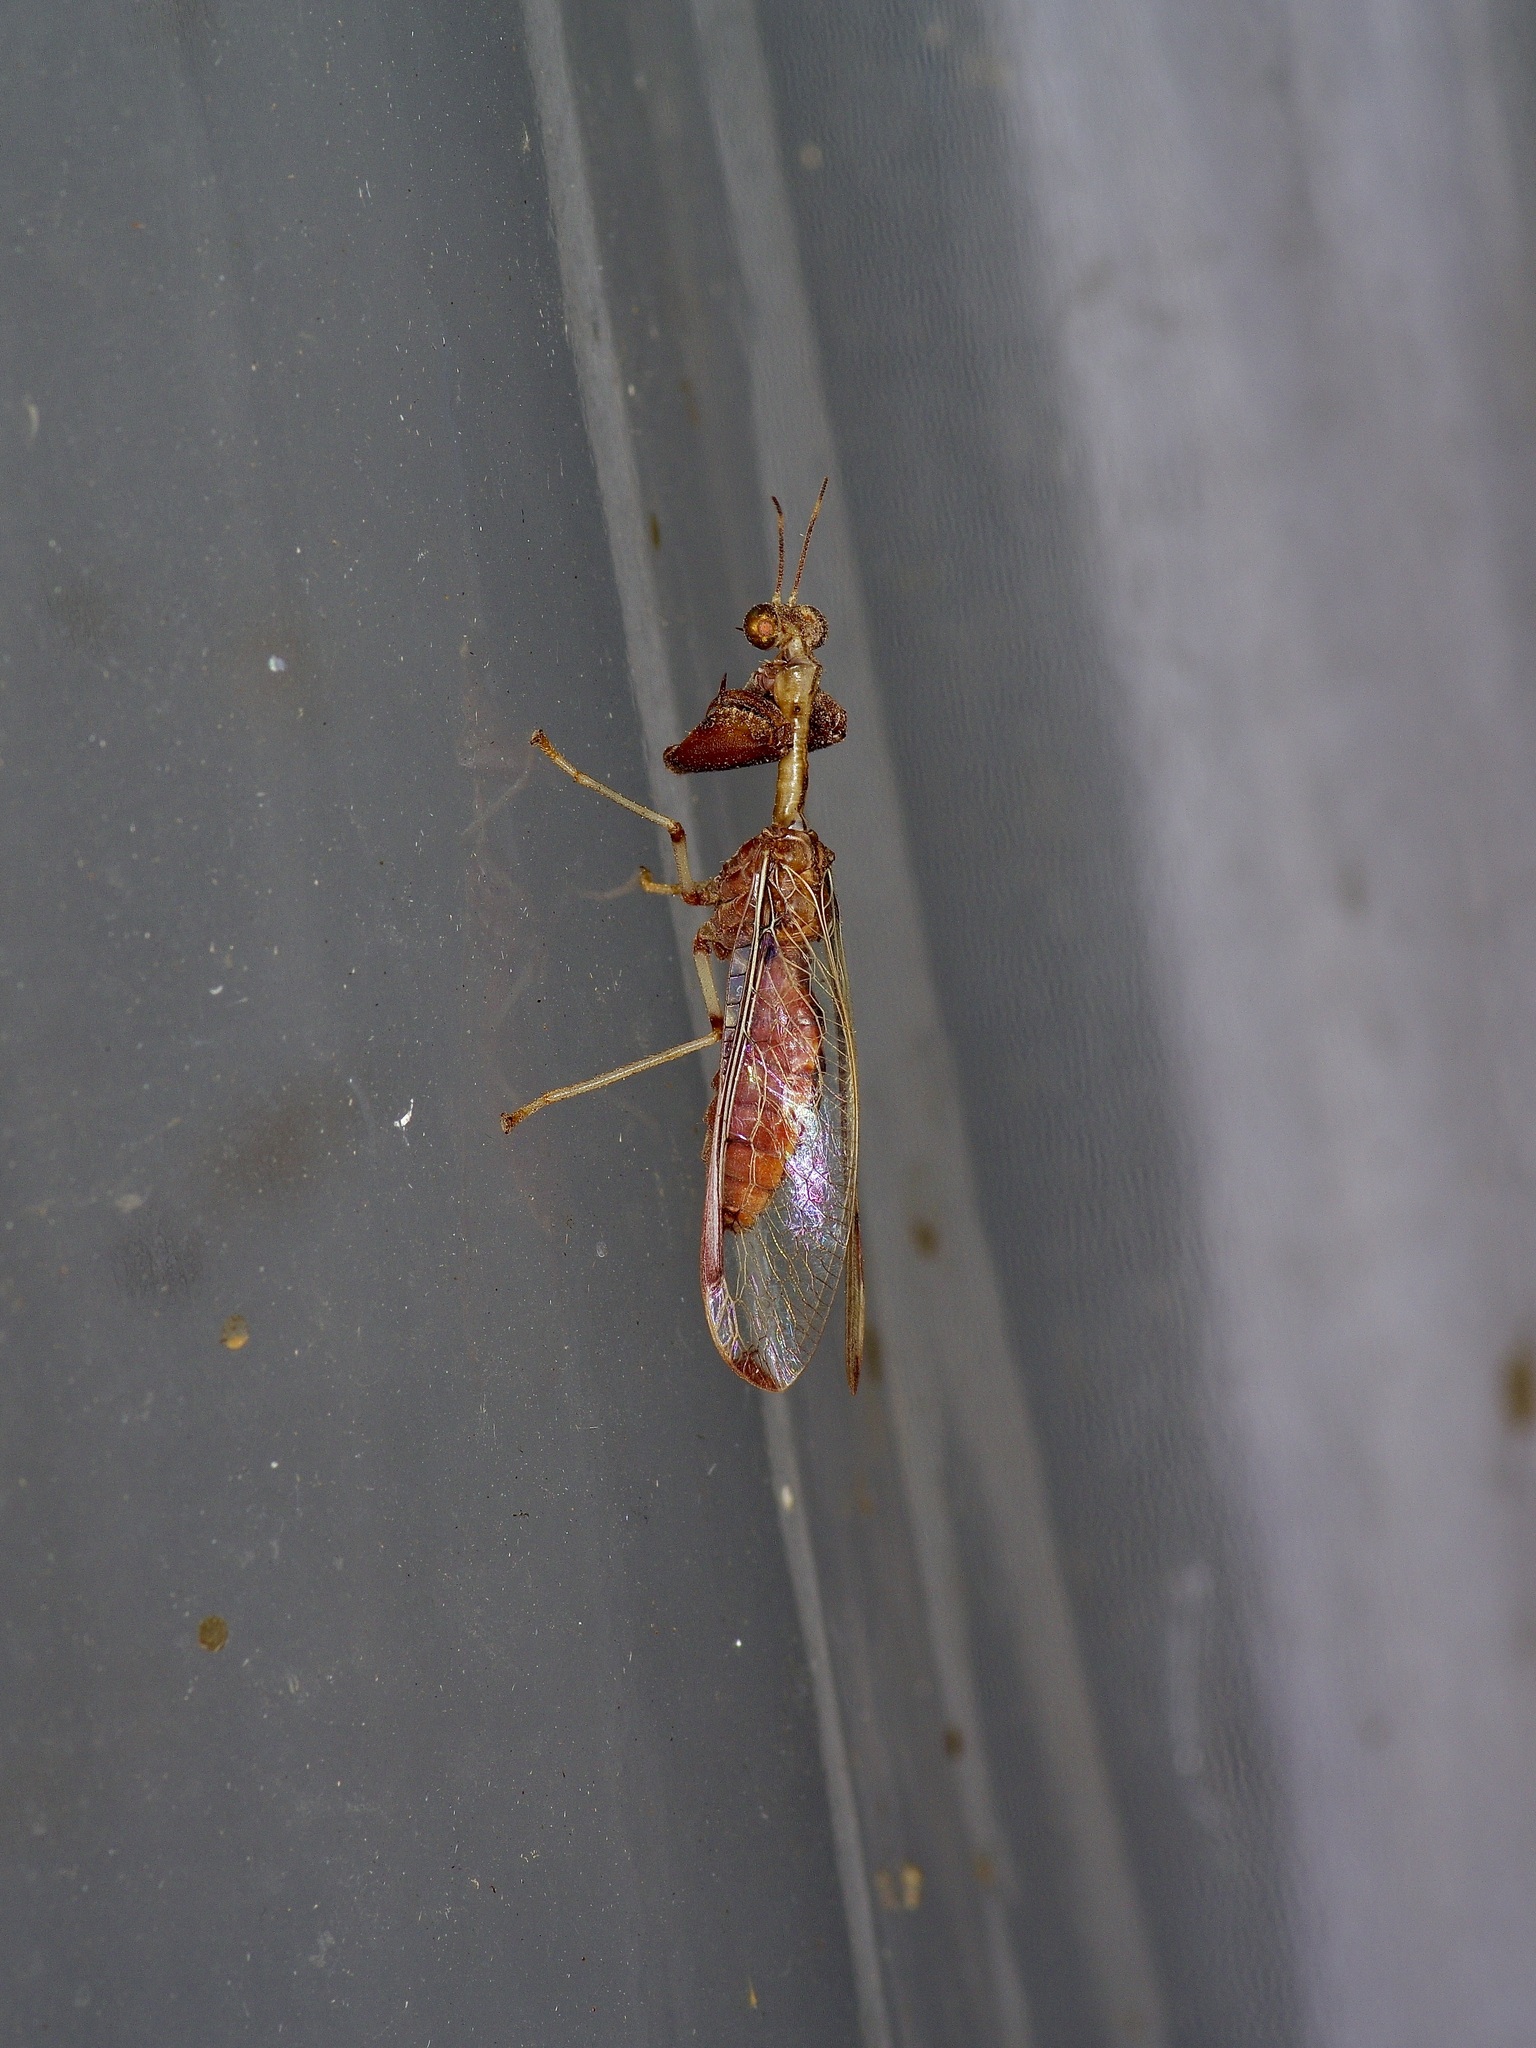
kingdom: Animalia
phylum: Arthropoda
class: Insecta
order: Neuroptera
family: Mantispidae
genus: Dicromantispa
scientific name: Dicromantispa interrupta
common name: Four-spotted mantidfly
